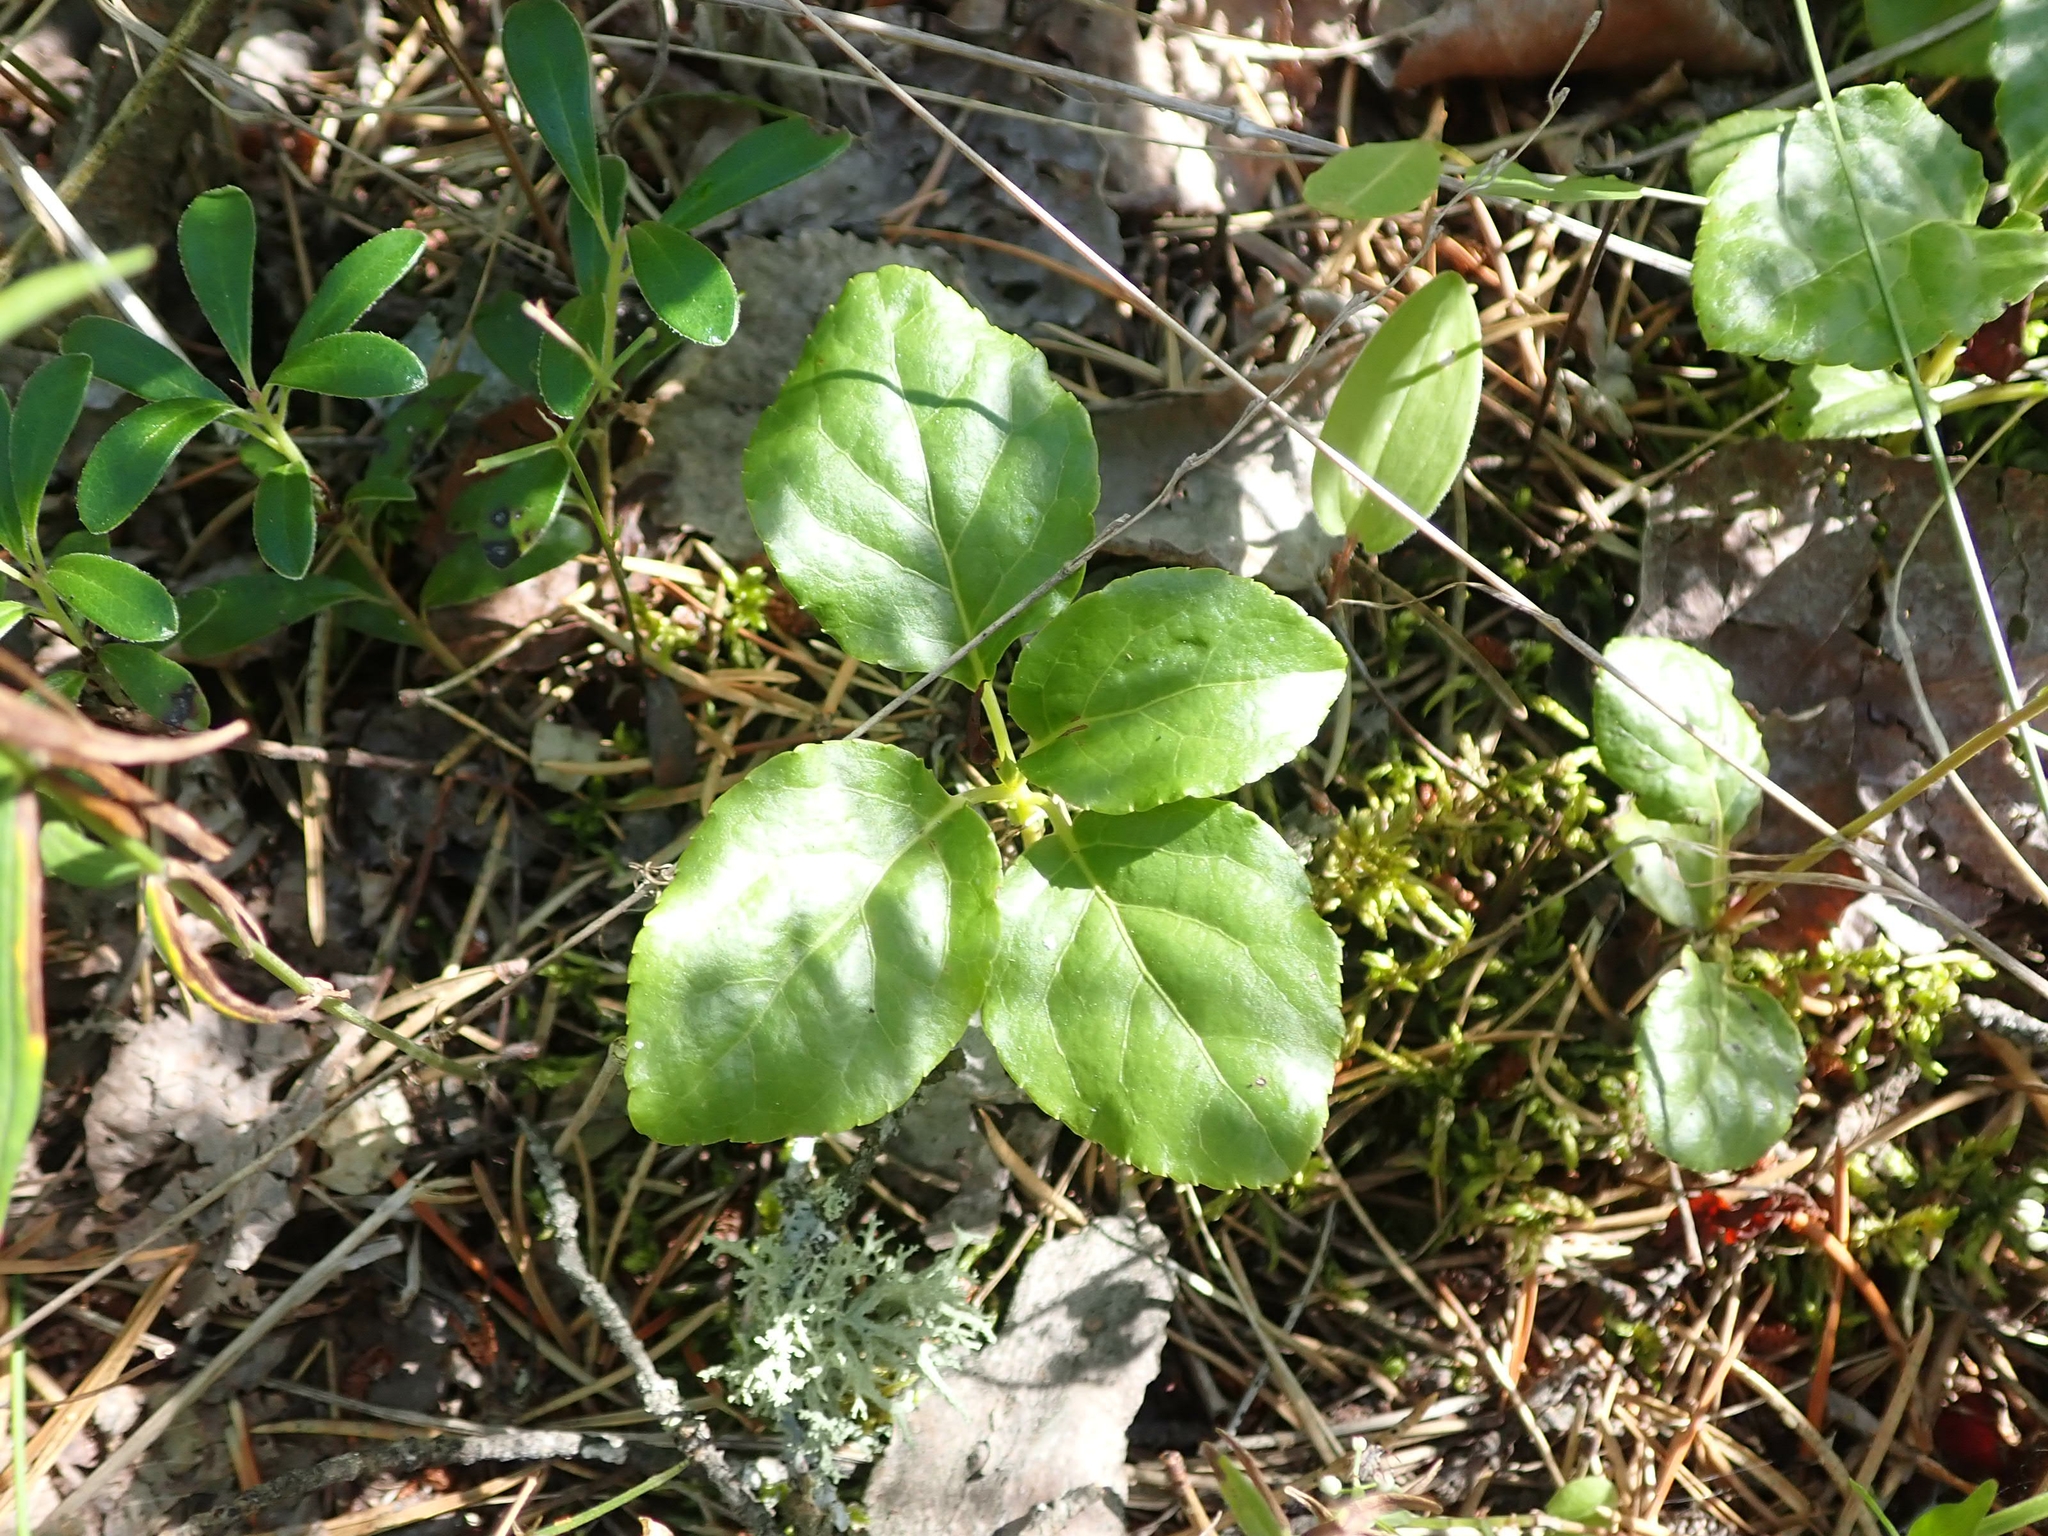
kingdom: Plantae
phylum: Tracheophyta
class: Magnoliopsida
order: Ericales
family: Ericaceae
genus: Orthilia
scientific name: Orthilia secunda
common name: One-sided orthilia
